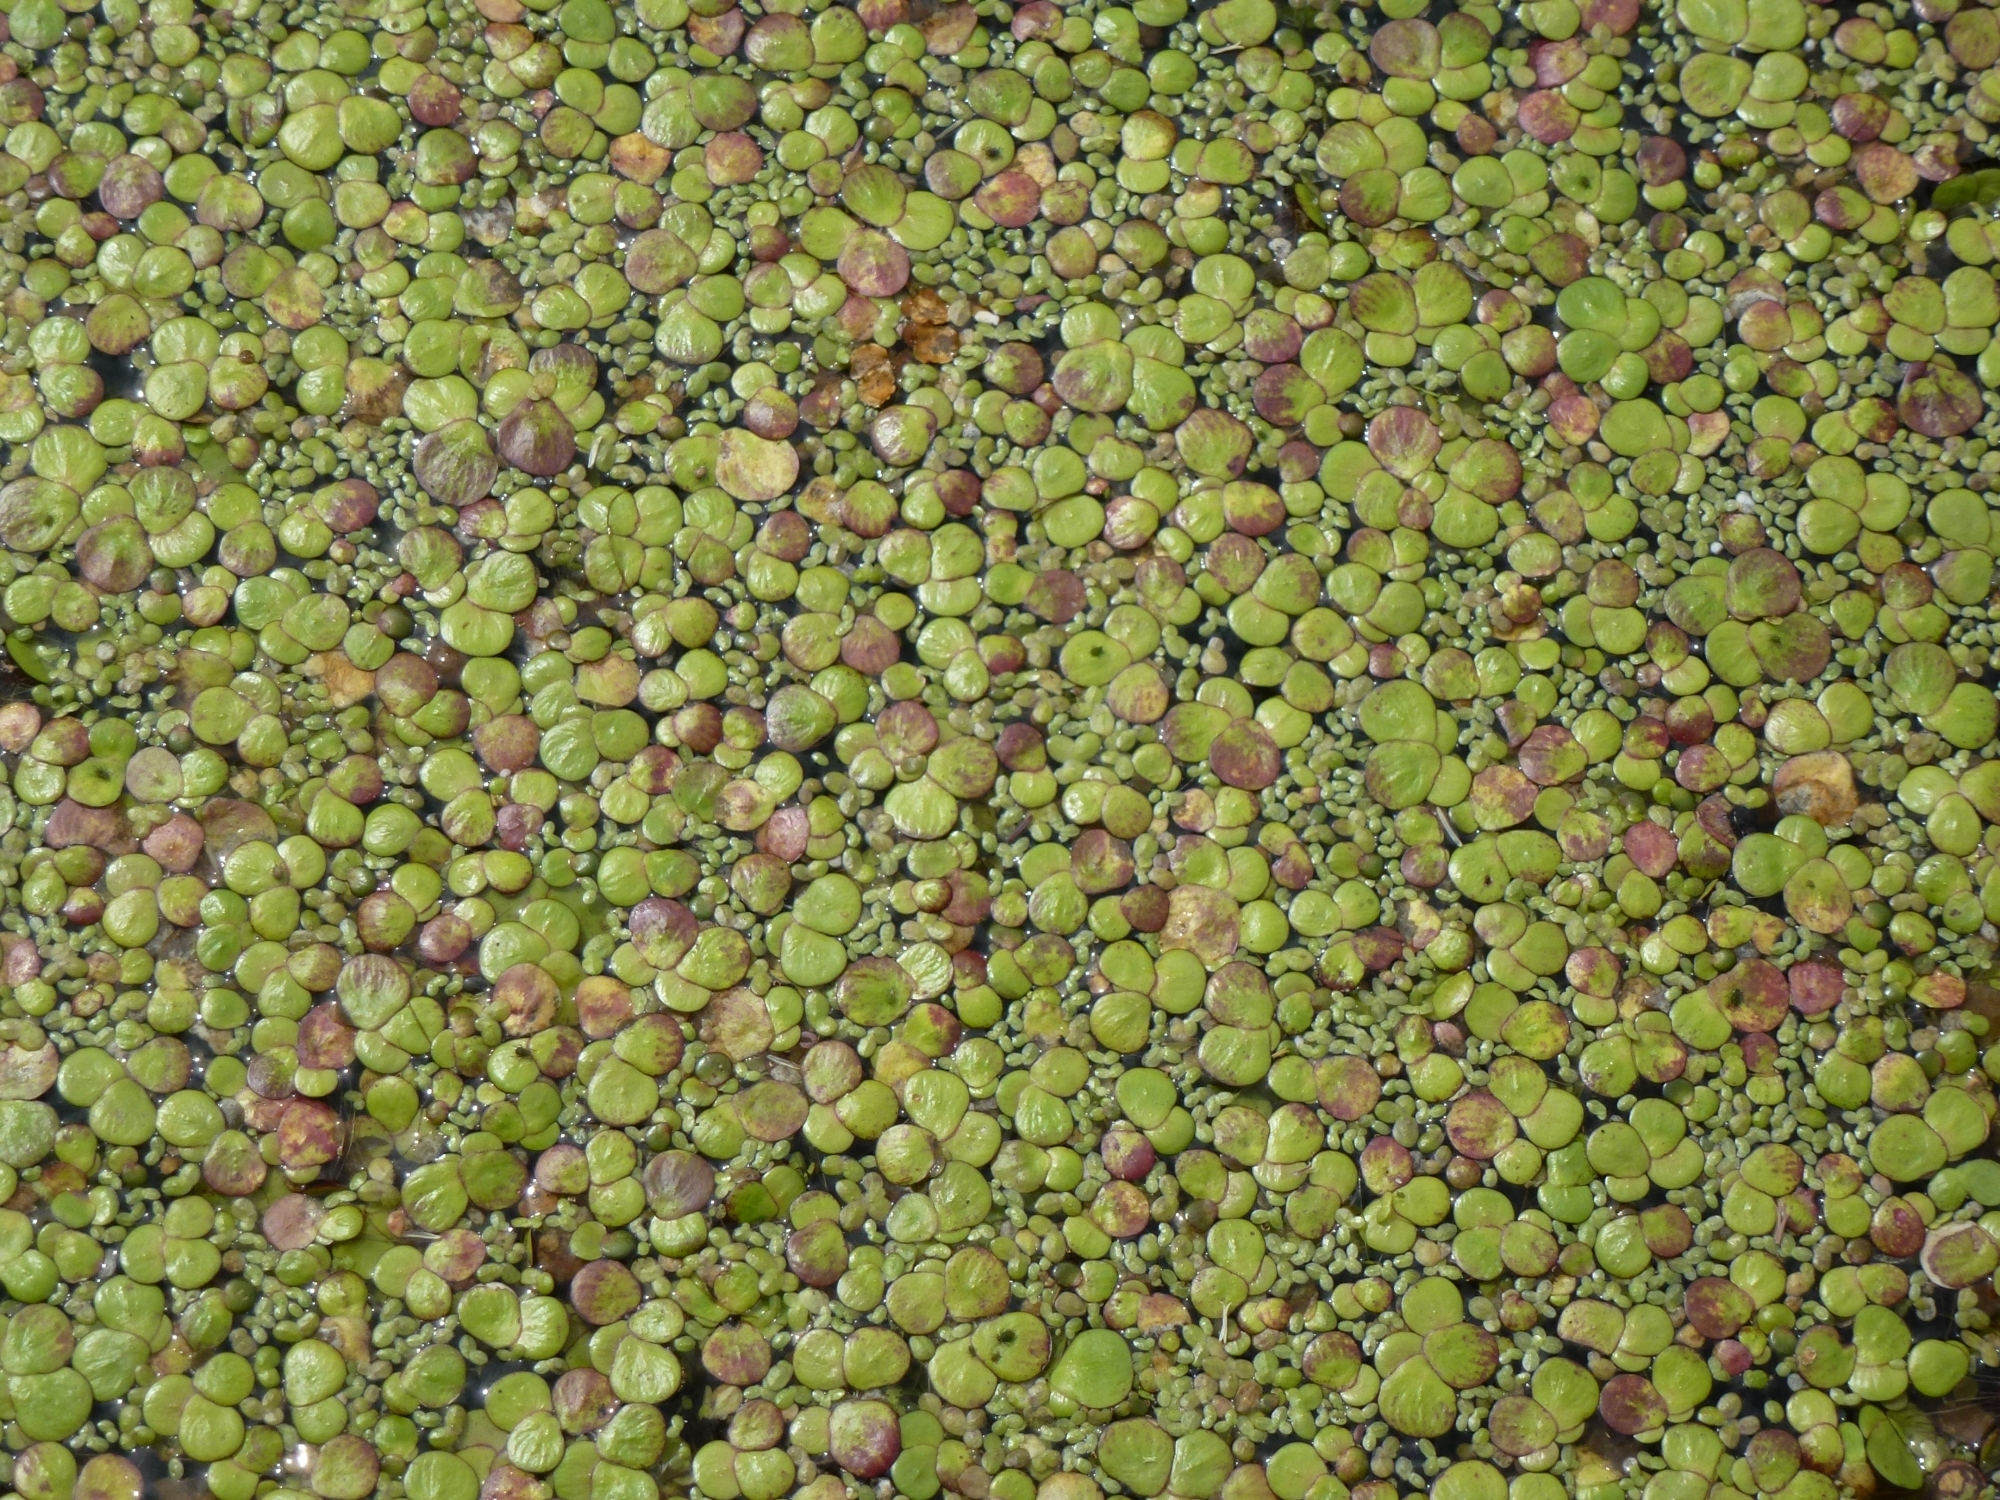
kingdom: Plantae
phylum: Tracheophyta
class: Liliopsida
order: Alismatales
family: Araceae
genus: Lemna
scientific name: Lemna minuta
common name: Least duckweed
